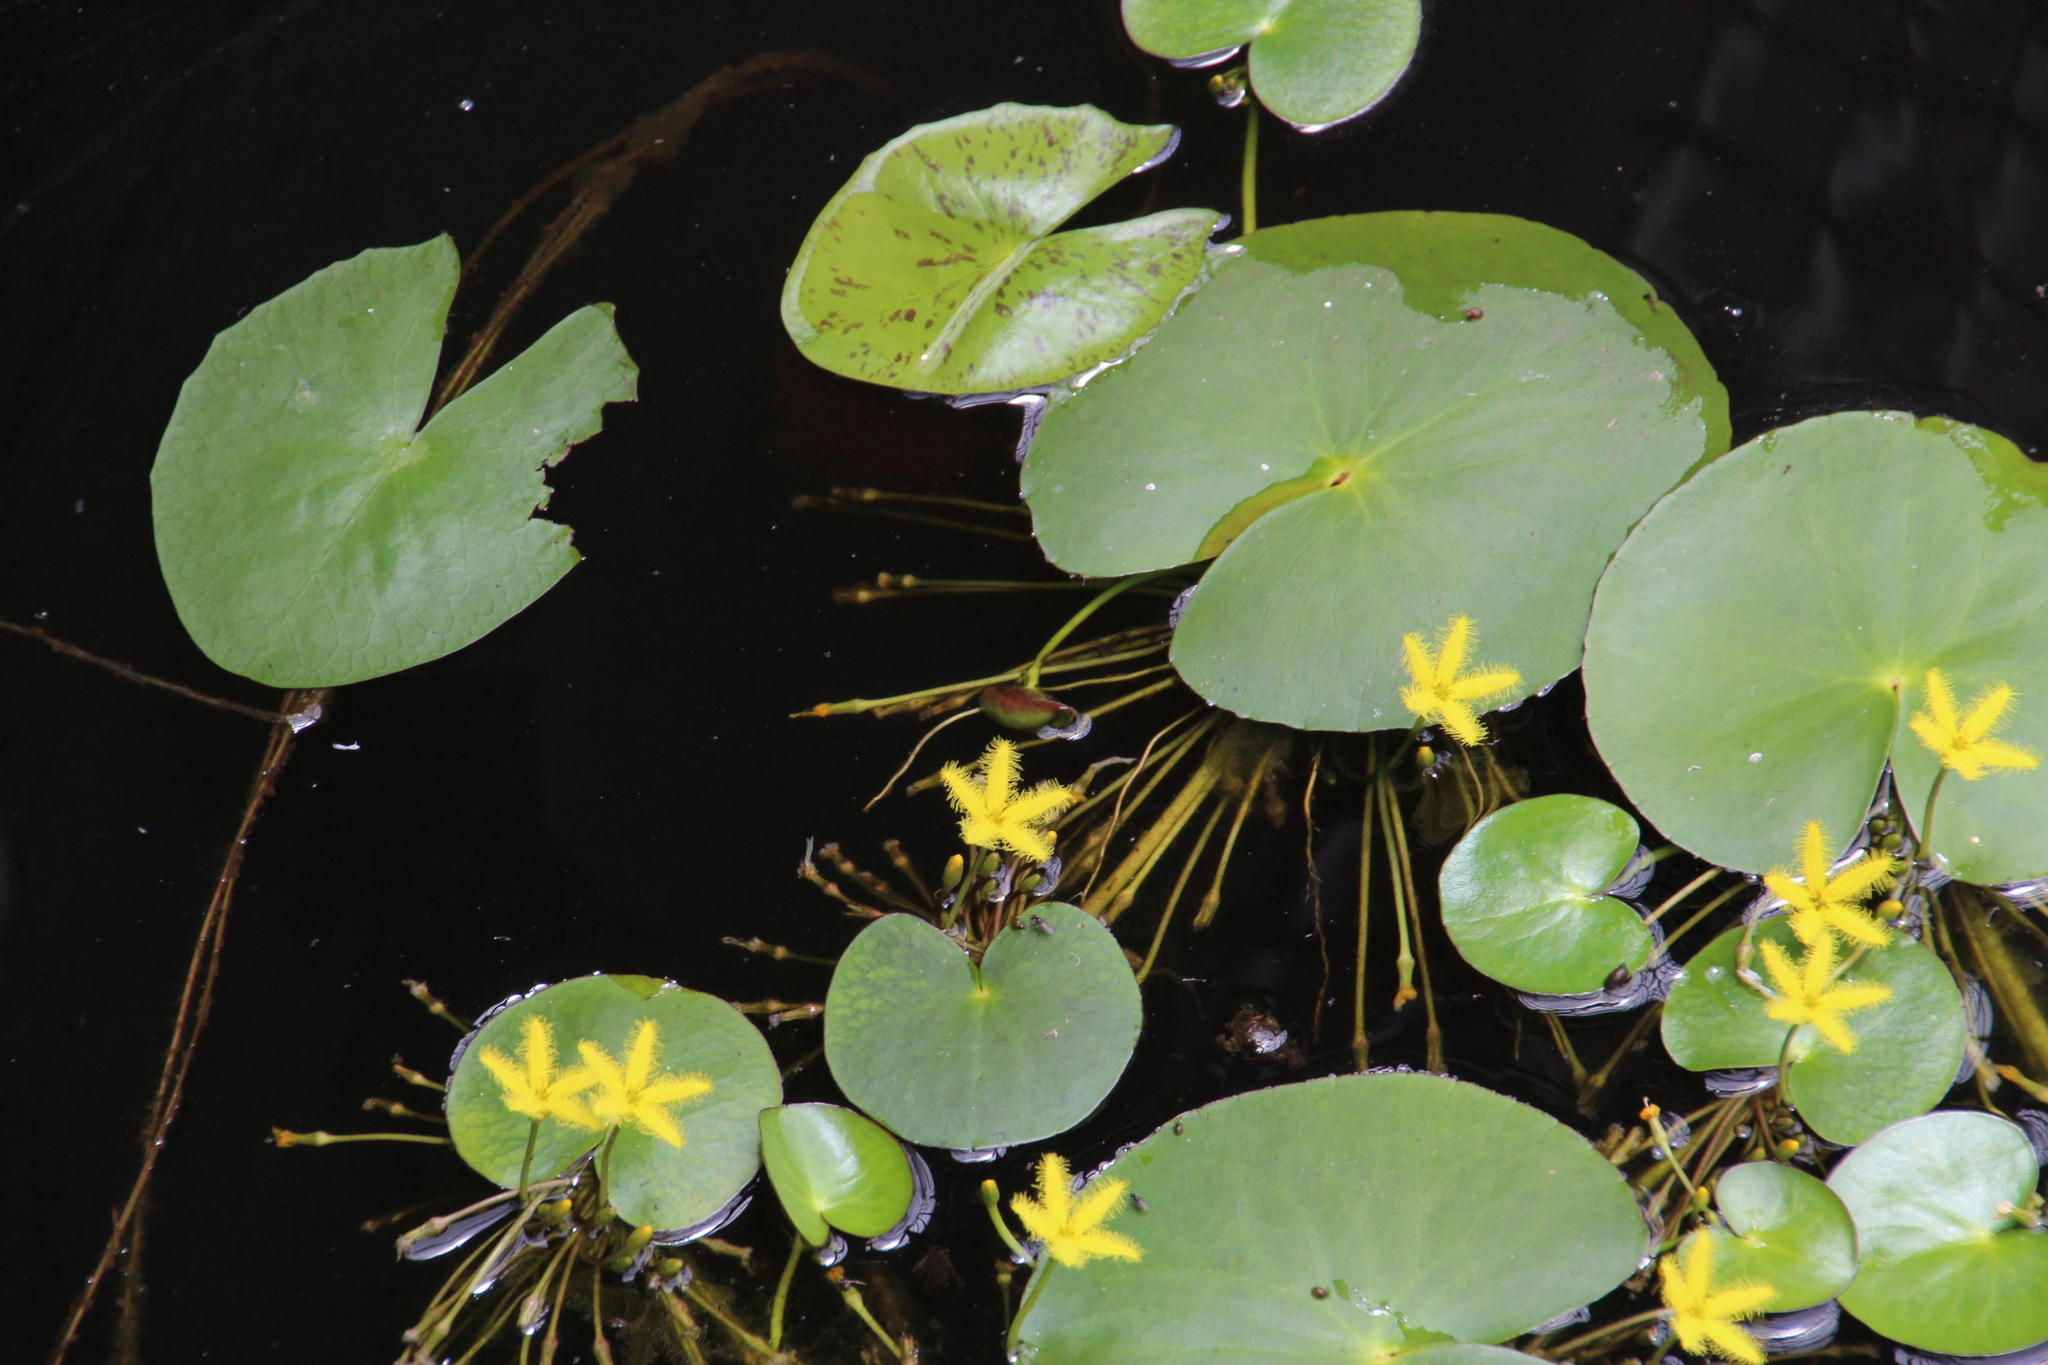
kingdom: Plantae
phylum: Tracheophyta
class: Magnoliopsida
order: Asterales
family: Menyanthaceae
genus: Nymphoides
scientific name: Nymphoides thunbergiana
